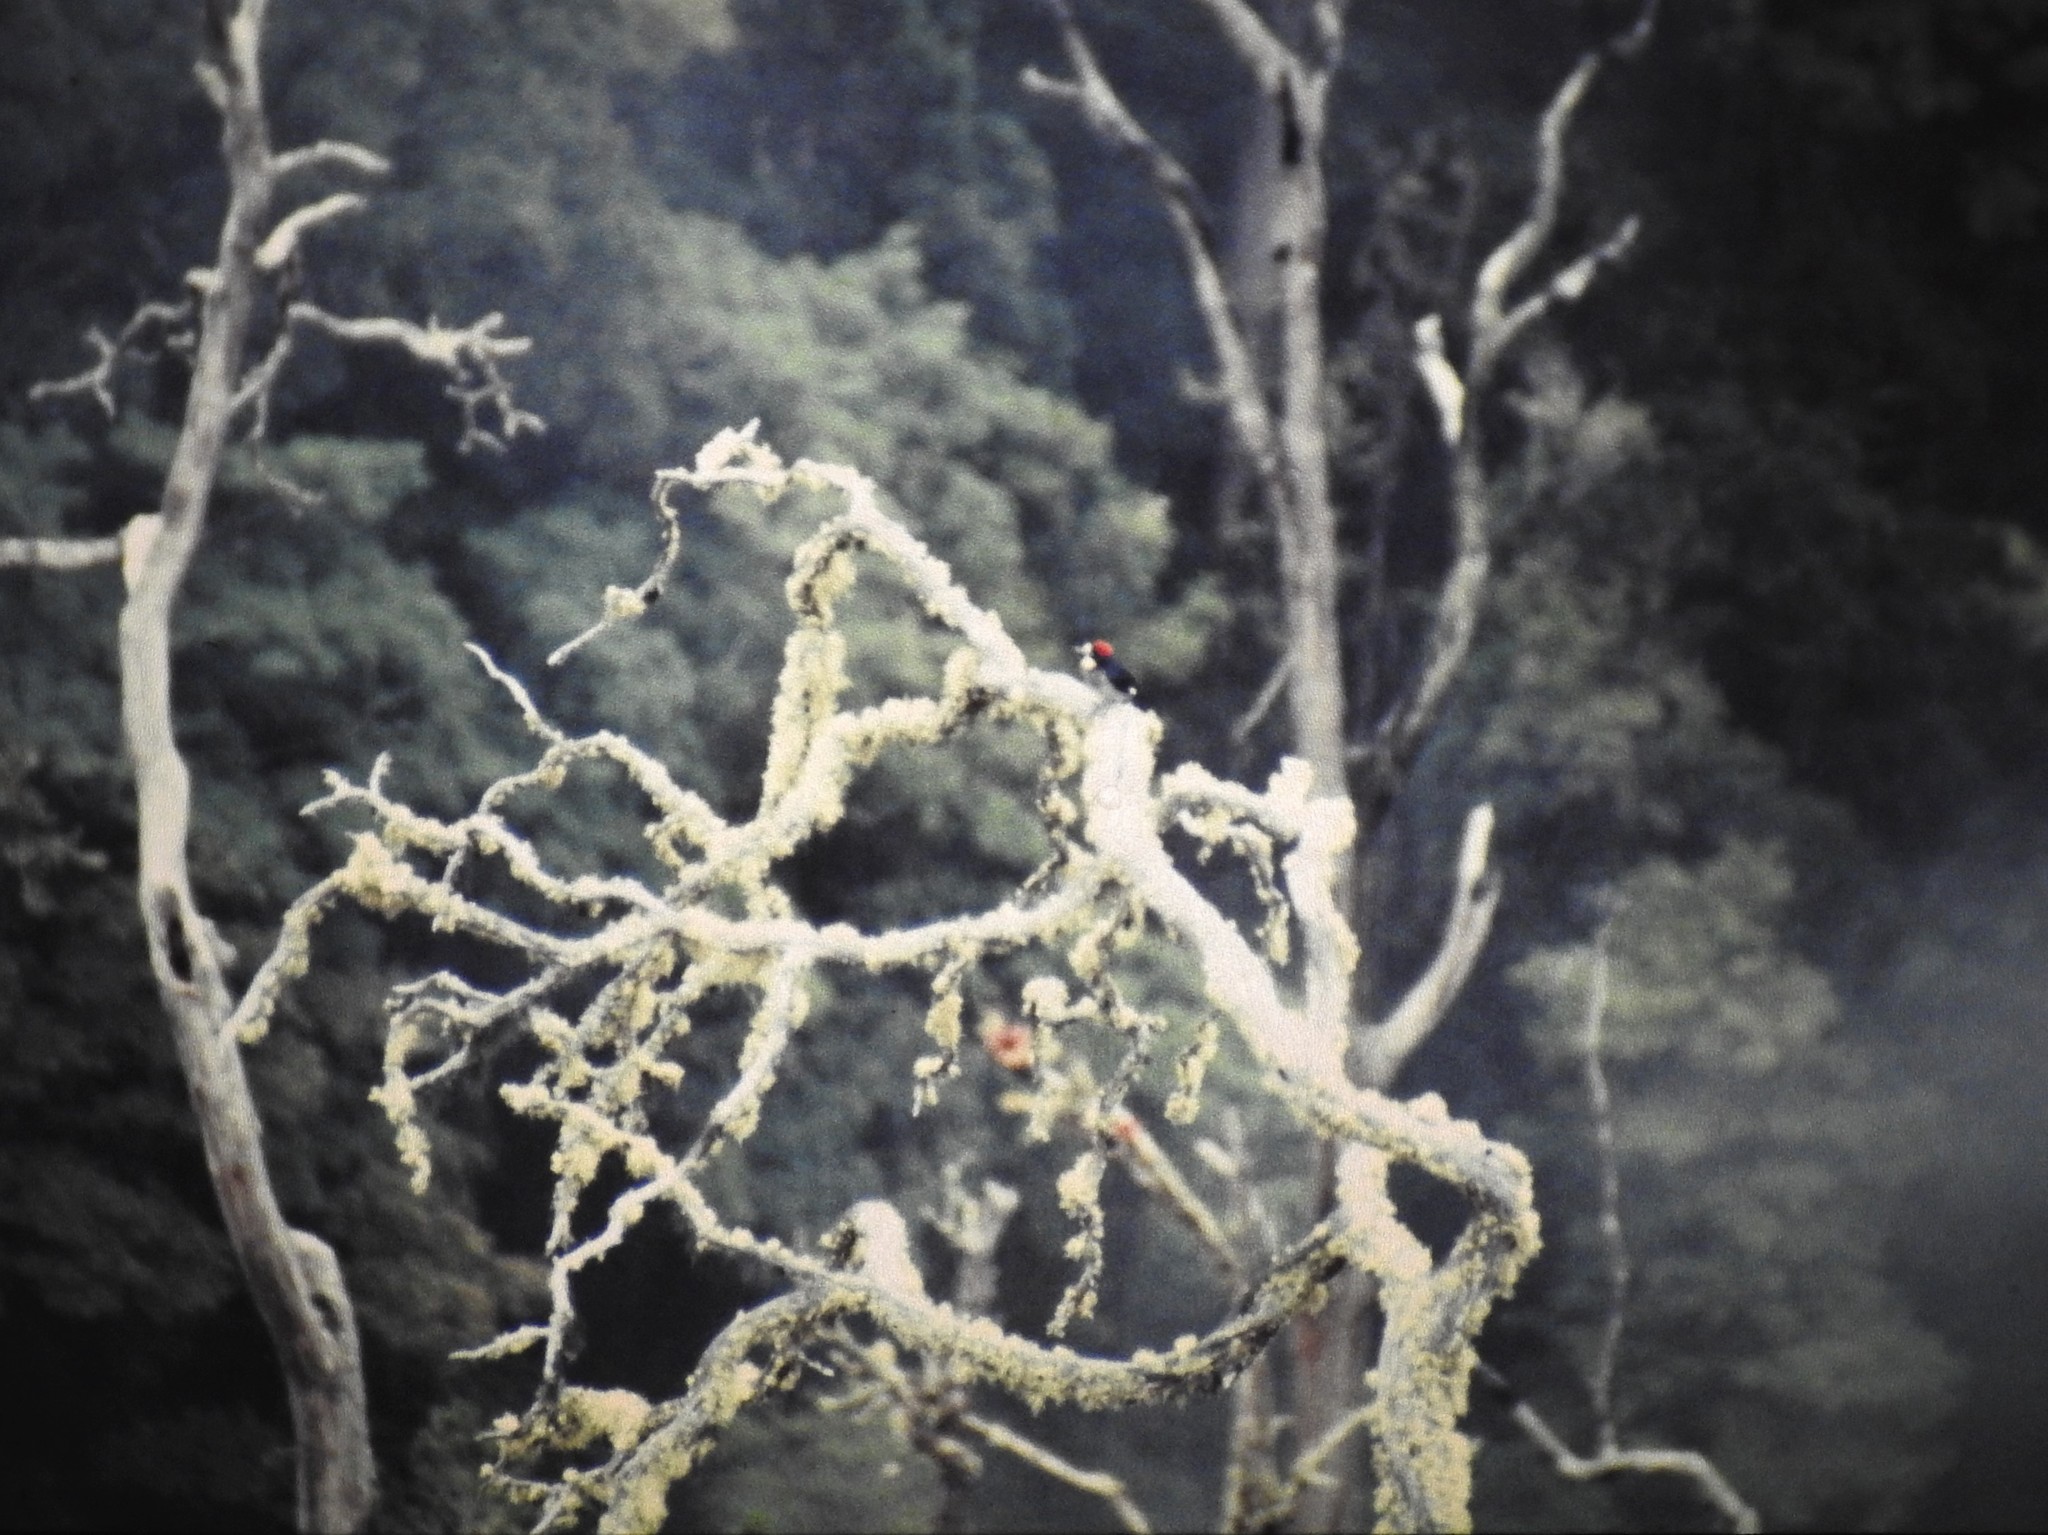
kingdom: Animalia
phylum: Chordata
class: Aves
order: Piciformes
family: Picidae
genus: Melanerpes
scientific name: Melanerpes formicivorus
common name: Acorn woodpecker
